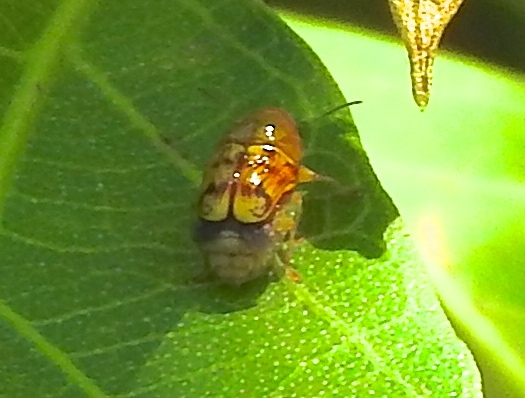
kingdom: Animalia
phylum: Arthropoda
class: Insecta
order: Coleoptera
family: Chrysomelidae
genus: Griburius
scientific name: Griburius puncturatus
